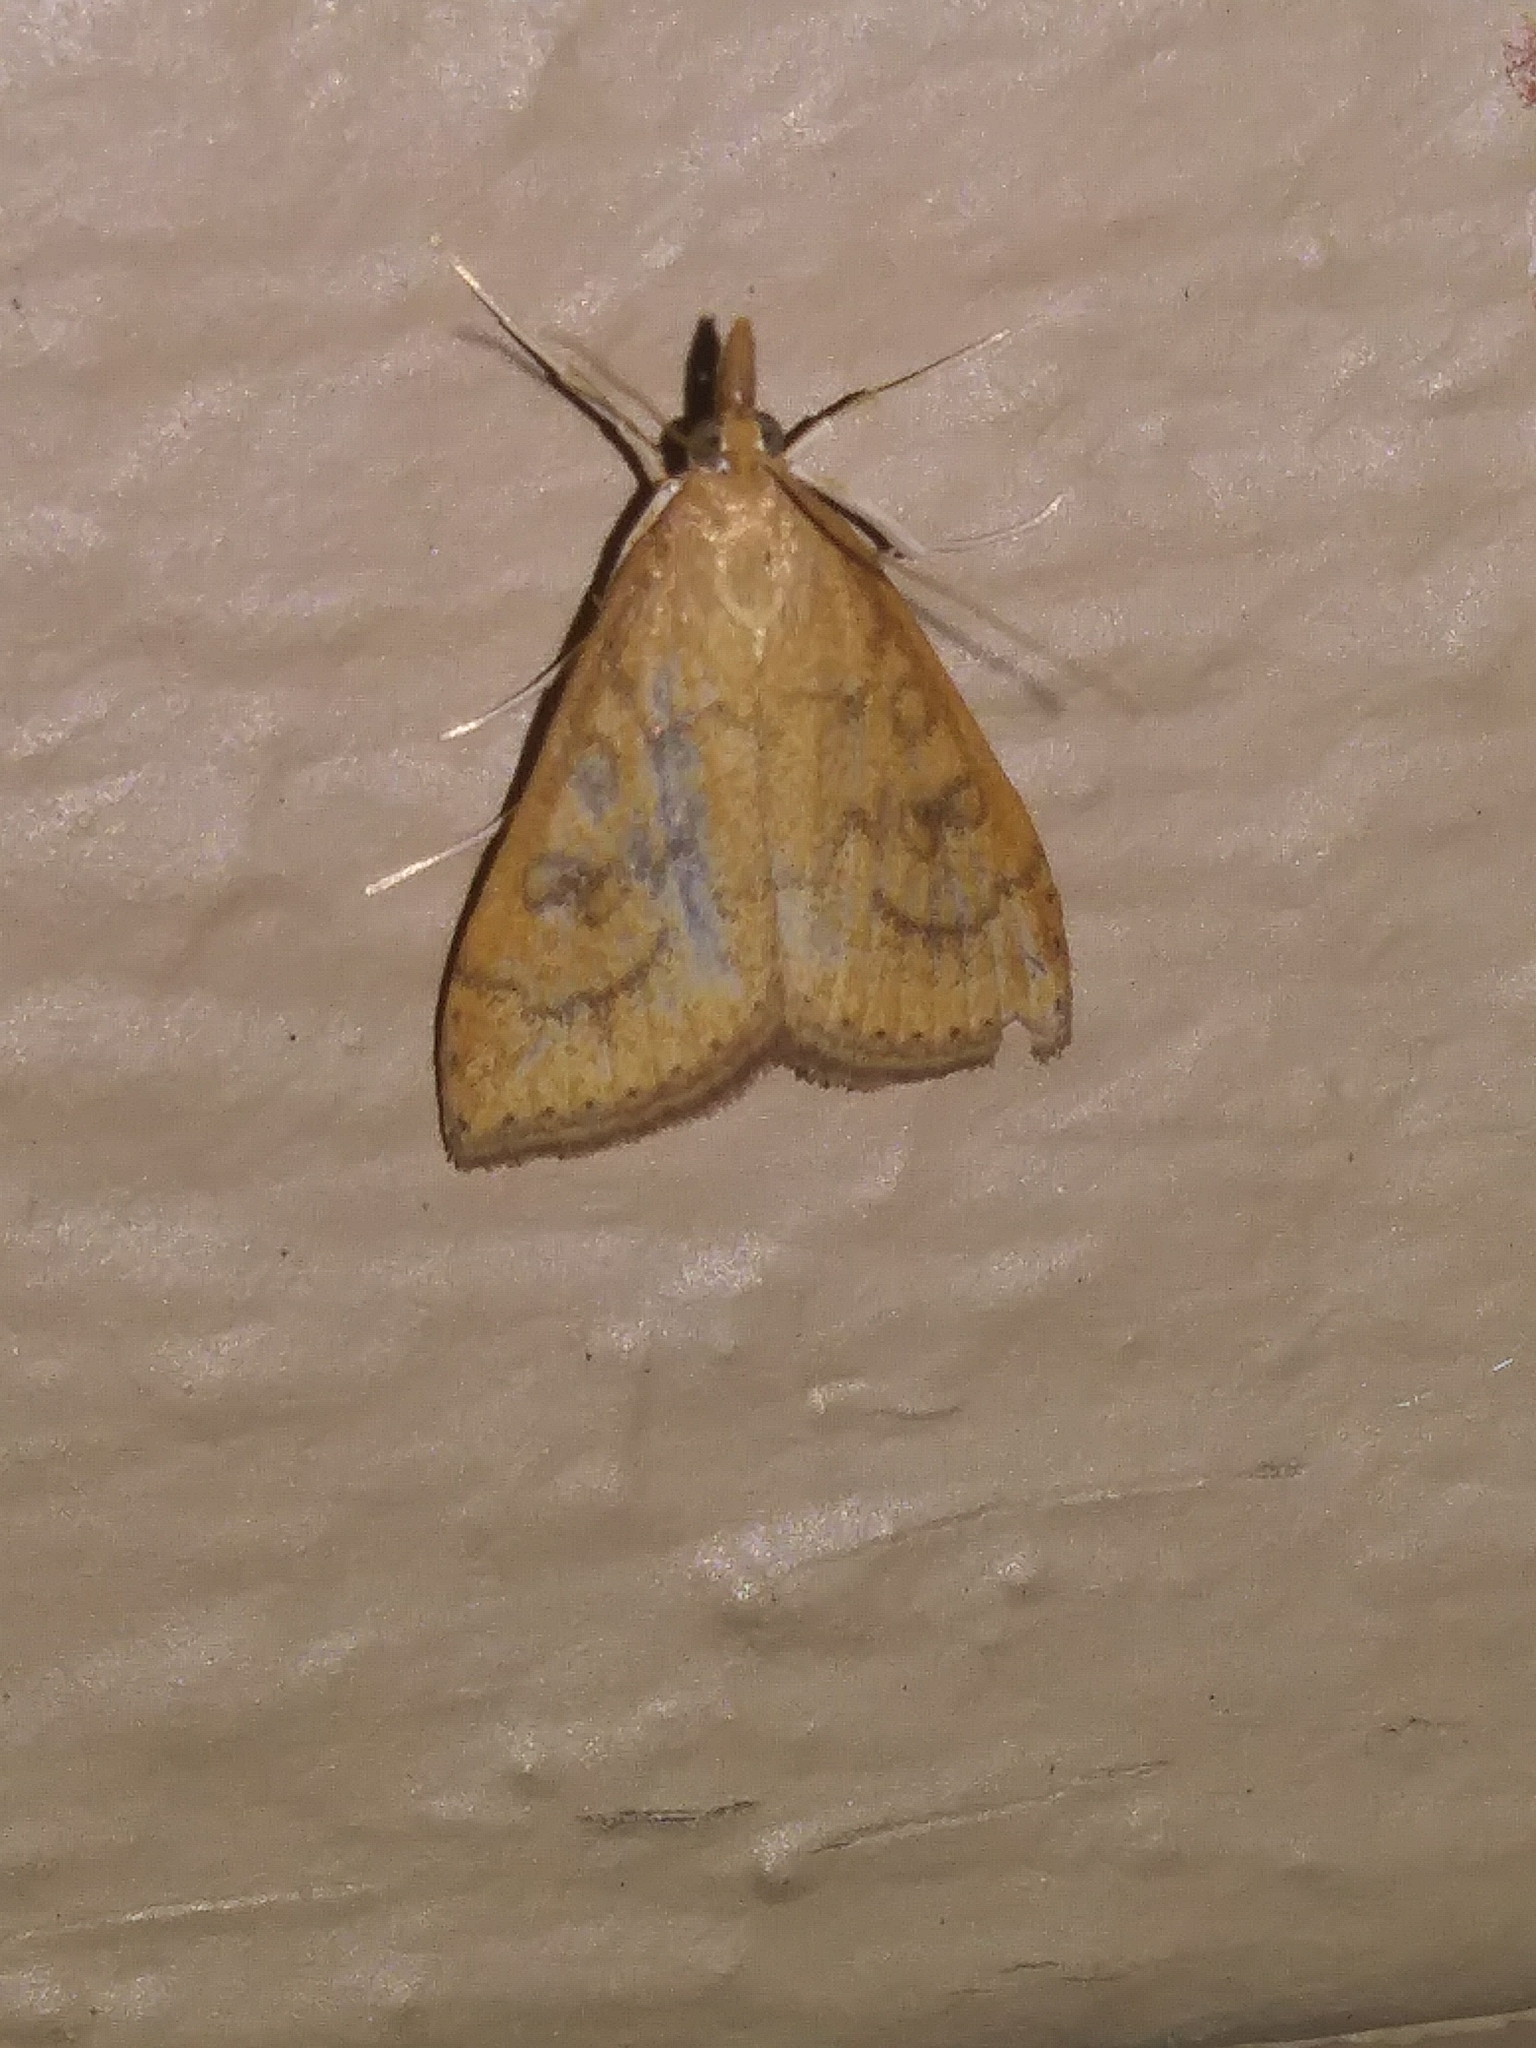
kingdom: Animalia
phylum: Arthropoda
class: Insecta
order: Lepidoptera
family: Crambidae
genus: Udea
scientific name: Udea rubigalis
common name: Celery leaftier moth
